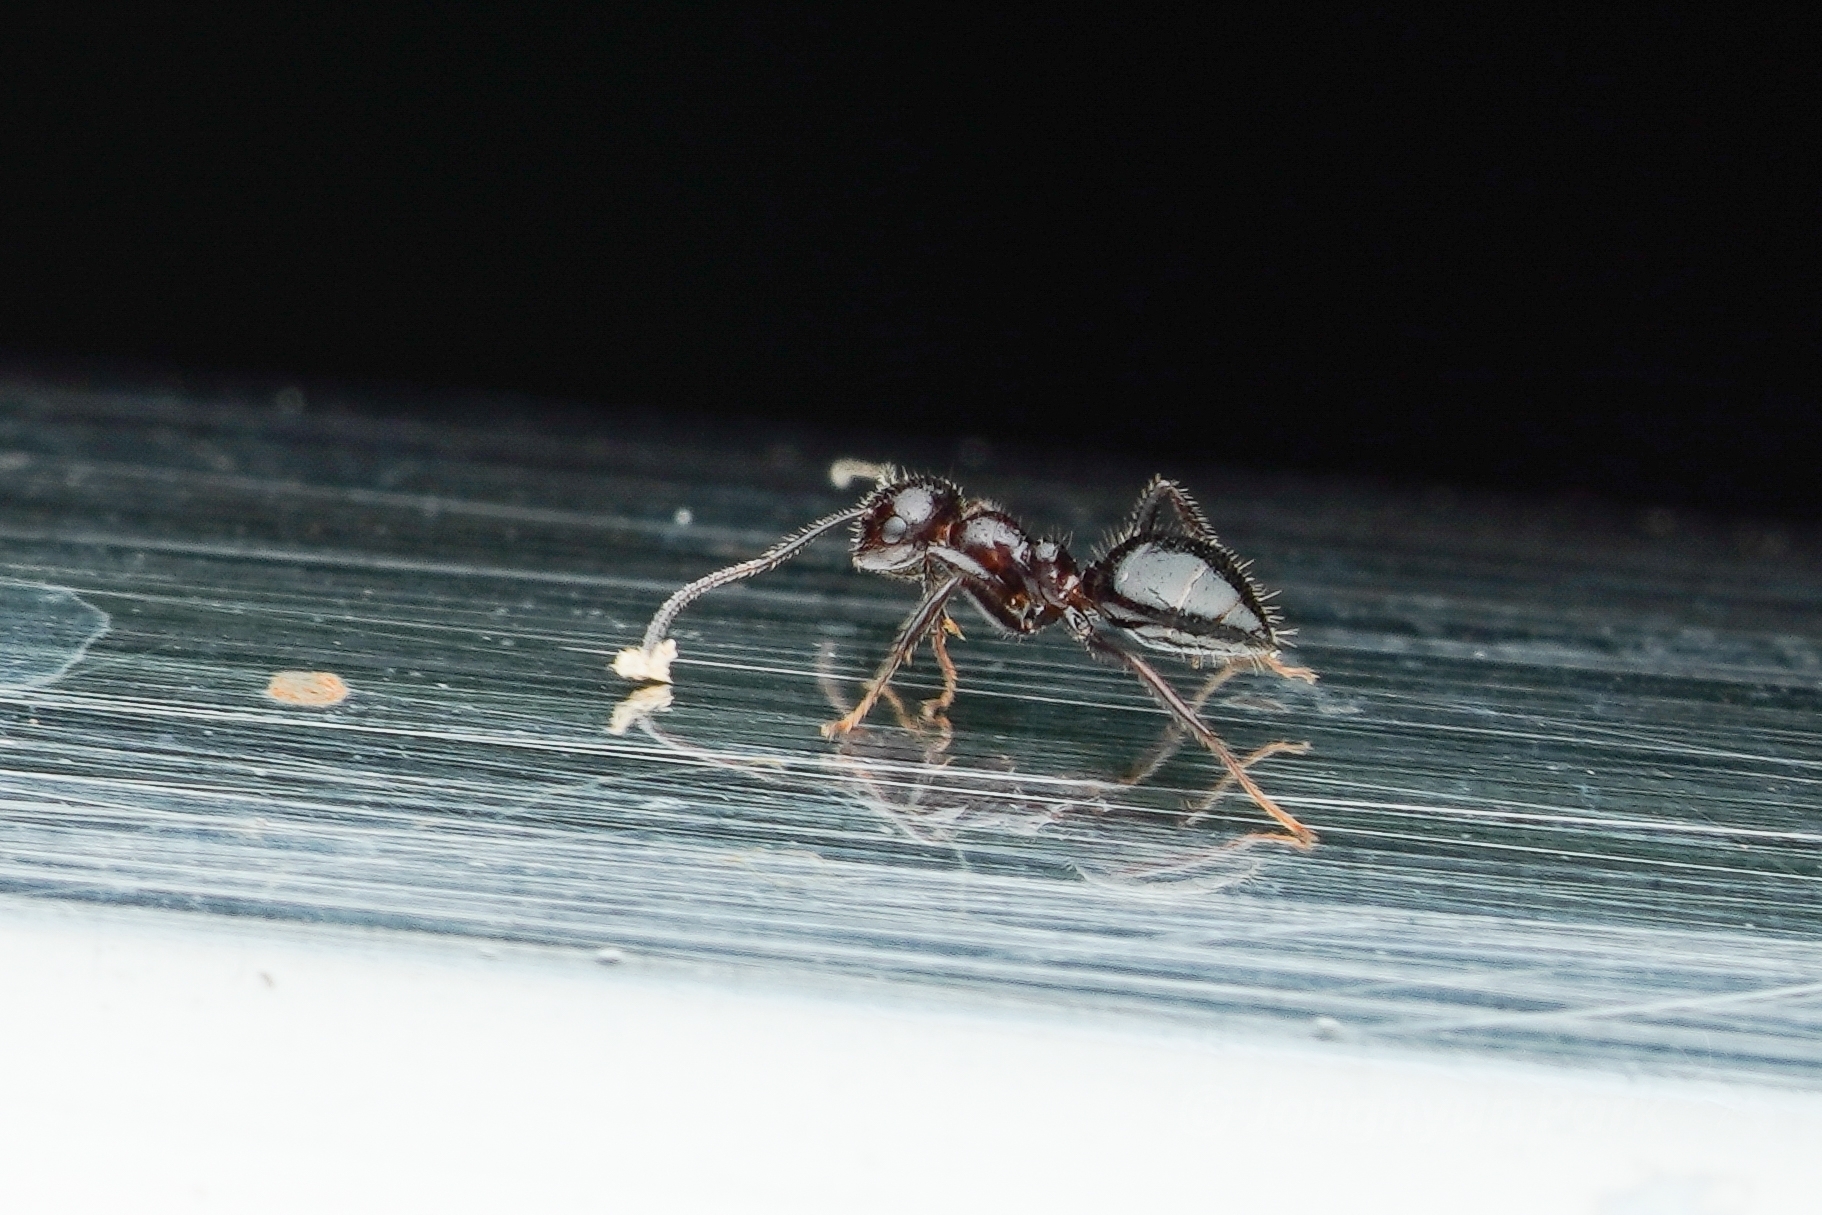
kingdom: Animalia
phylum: Arthropoda
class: Insecta
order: Hymenoptera
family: Formicidae
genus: Camponotus
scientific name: Camponotus vitreus
